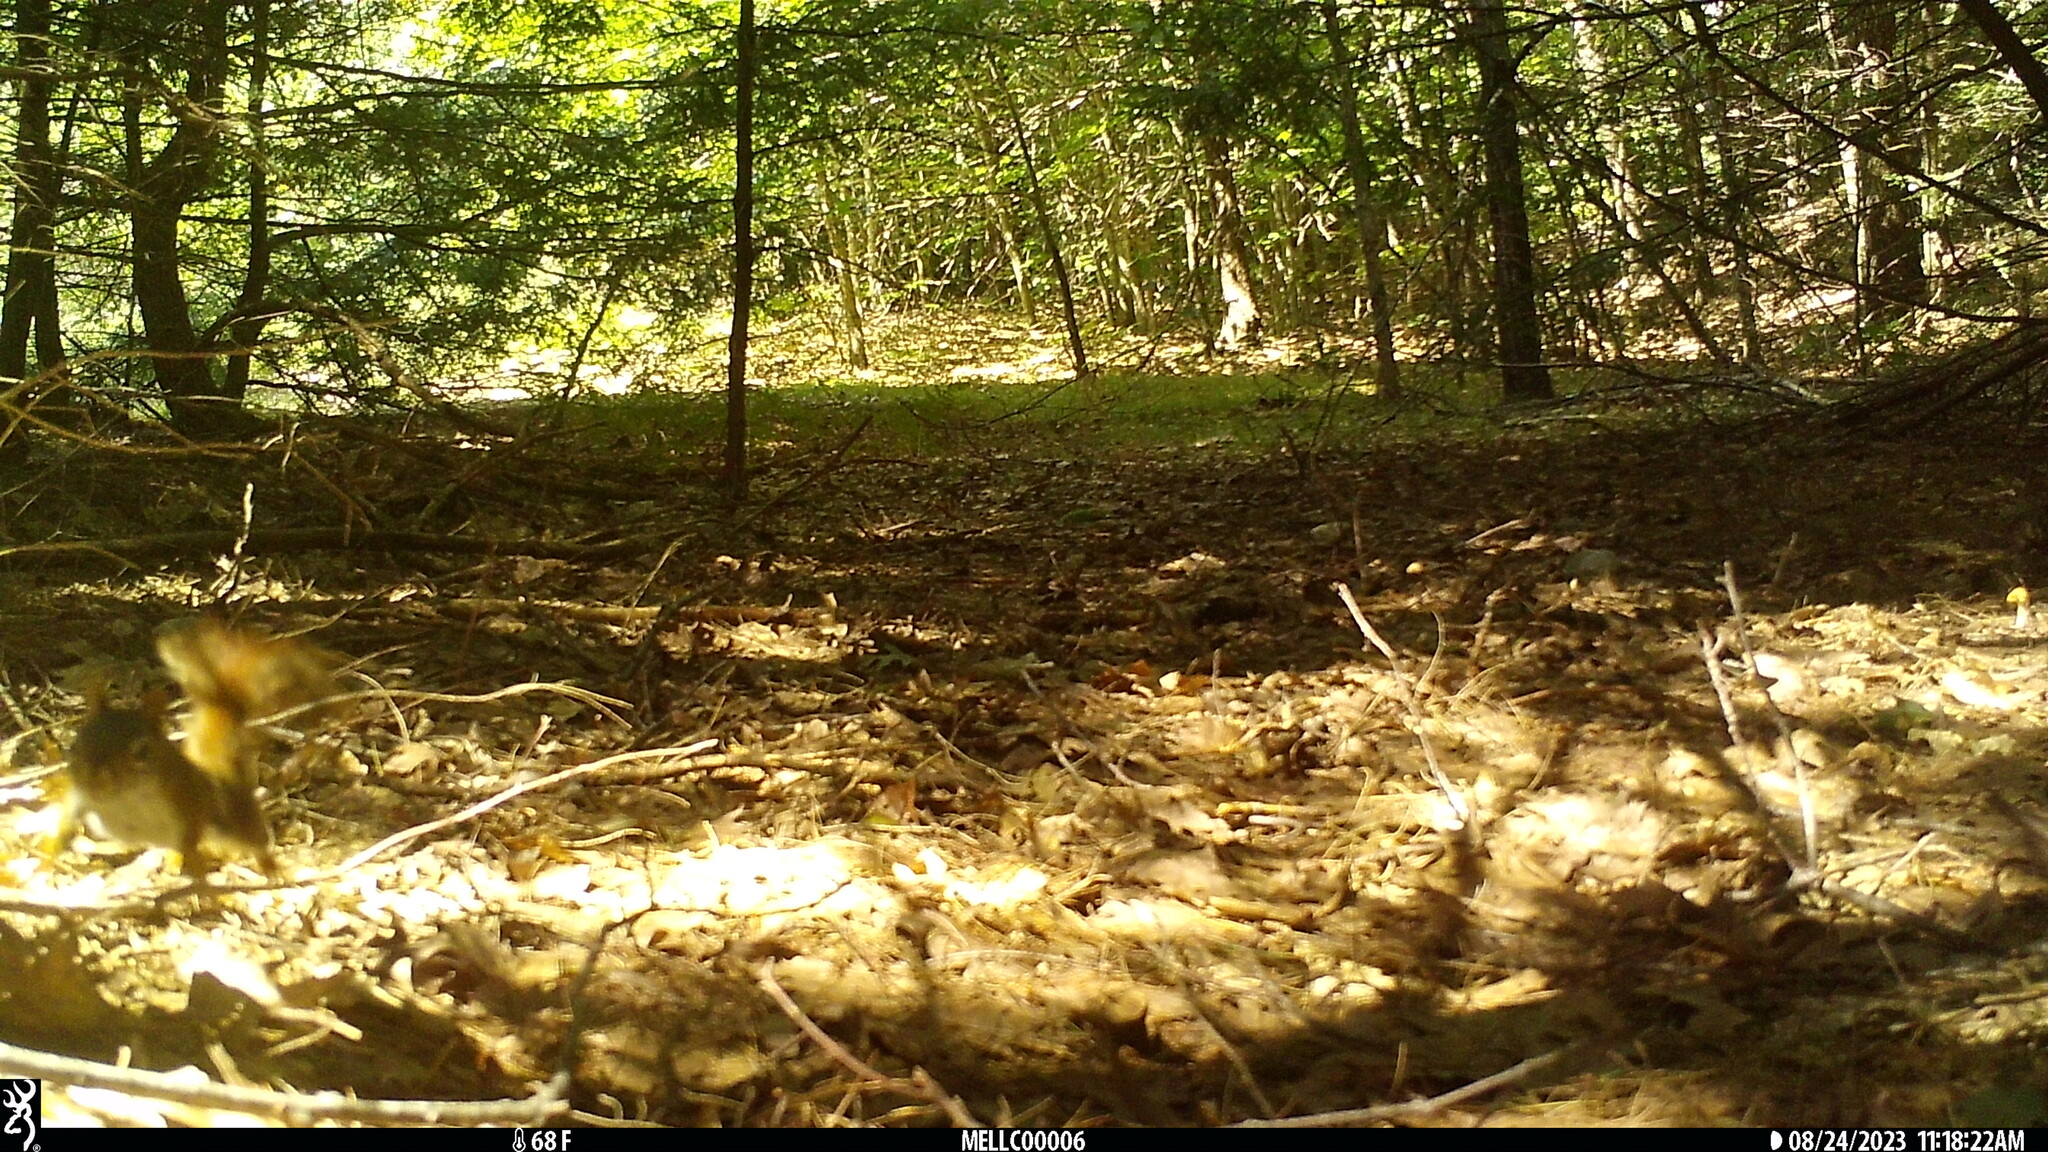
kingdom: Animalia
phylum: Chordata
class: Mammalia
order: Rodentia
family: Sciuridae
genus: Tamiasciurus
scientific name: Tamiasciurus hudsonicus
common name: Red squirrel
